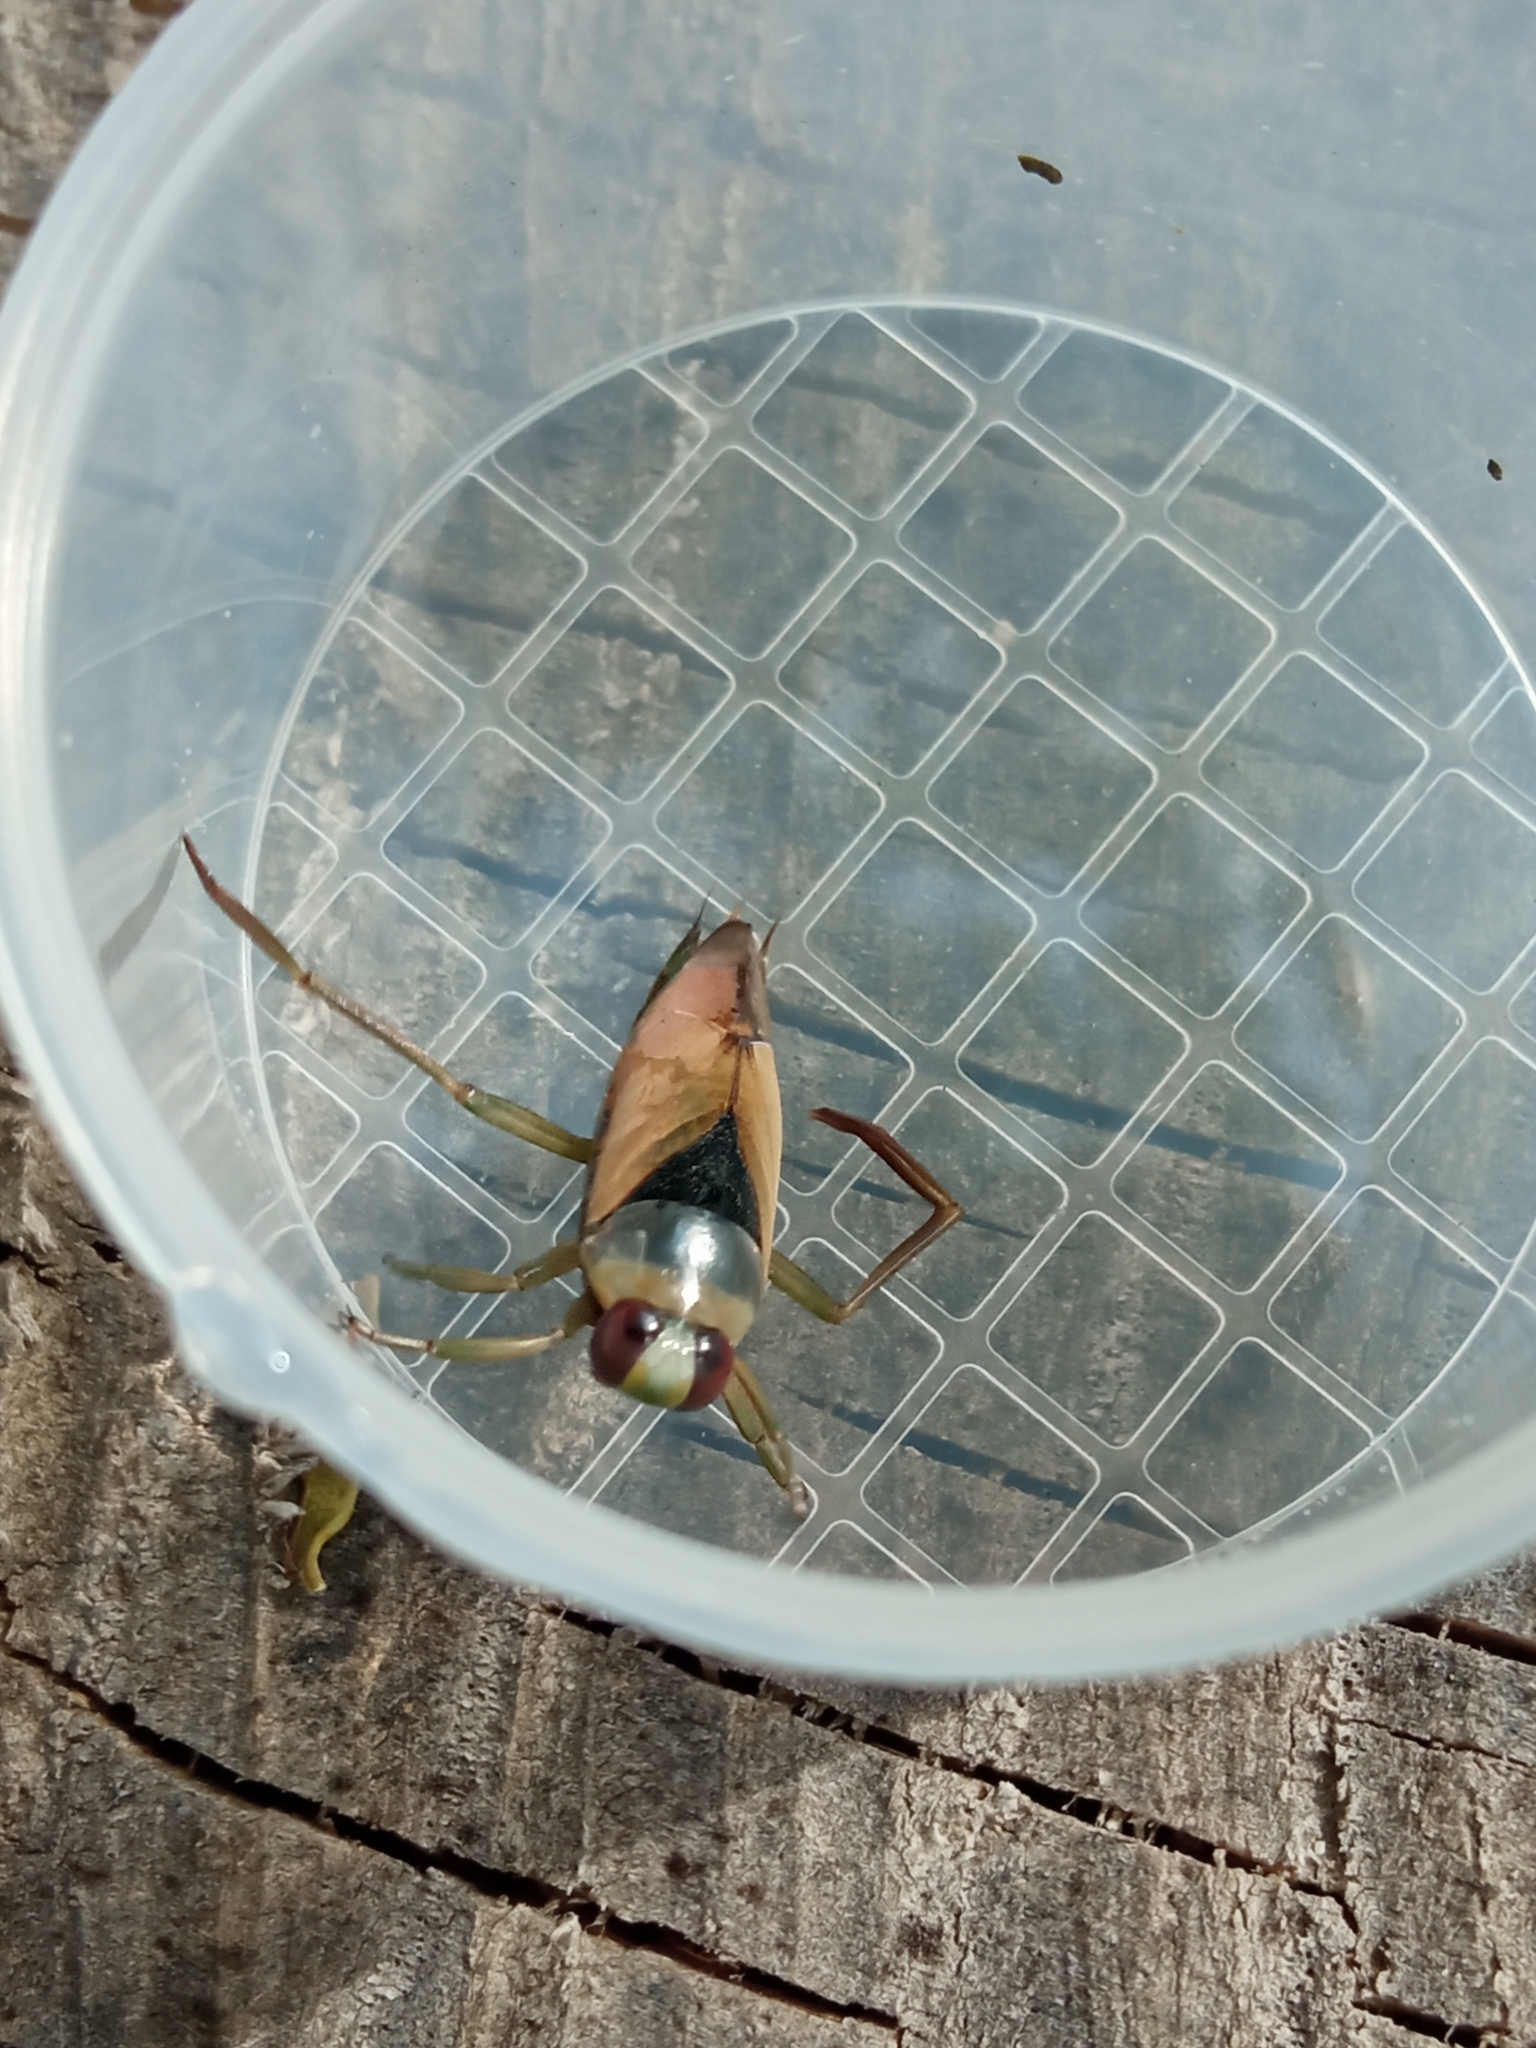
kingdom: Animalia
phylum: Arthropoda
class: Insecta
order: Hemiptera
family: Notonectidae
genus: Notonecta
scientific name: Notonecta glauca
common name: Common water-boatman
